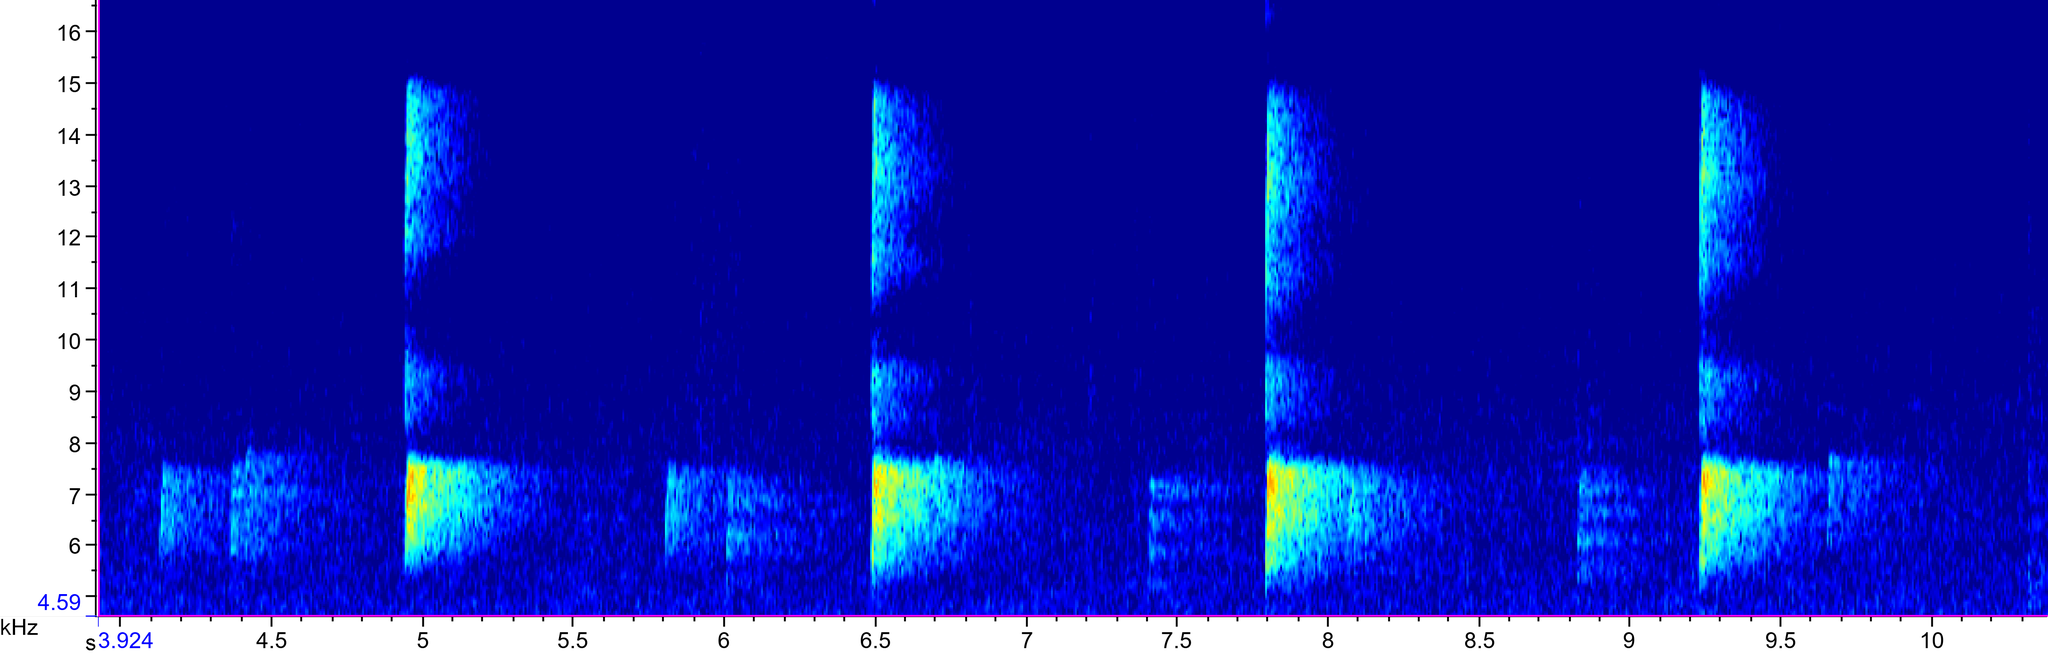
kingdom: Animalia
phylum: Chordata
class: Aves
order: Passeriformes
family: Cardinalidae
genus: Cardinalis
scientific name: Cardinalis cardinalis
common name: Northern cardinal
